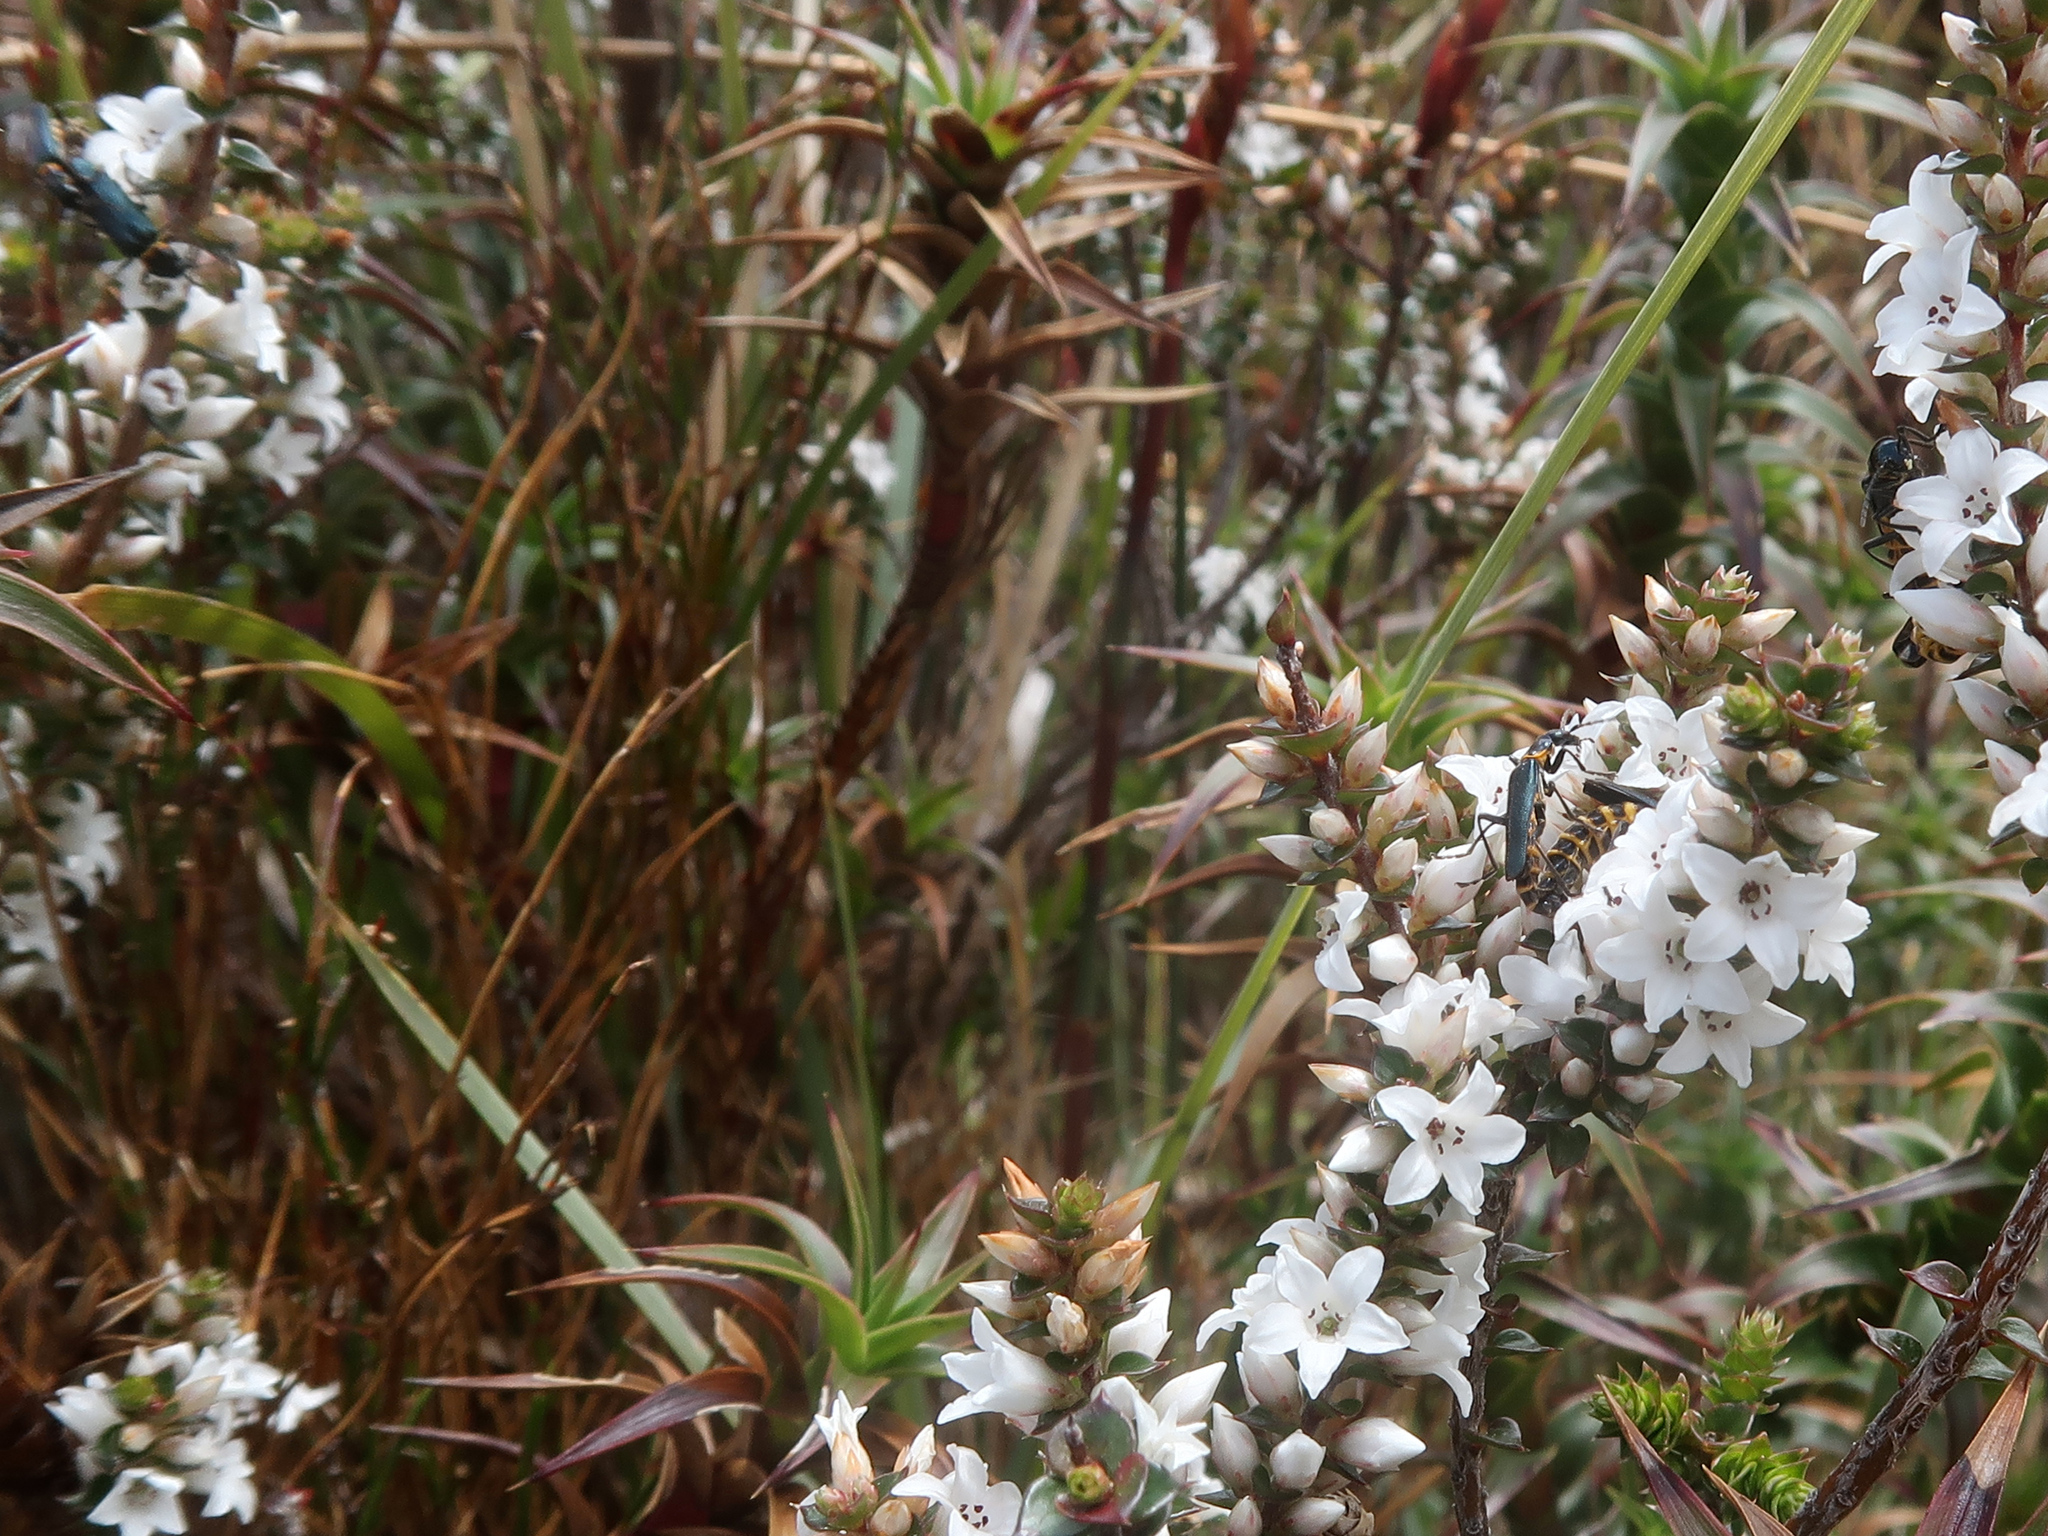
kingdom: Animalia
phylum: Arthropoda
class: Insecta
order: Coleoptera
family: Cantharidae
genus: Chauliognathus
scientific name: Chauliognathus
